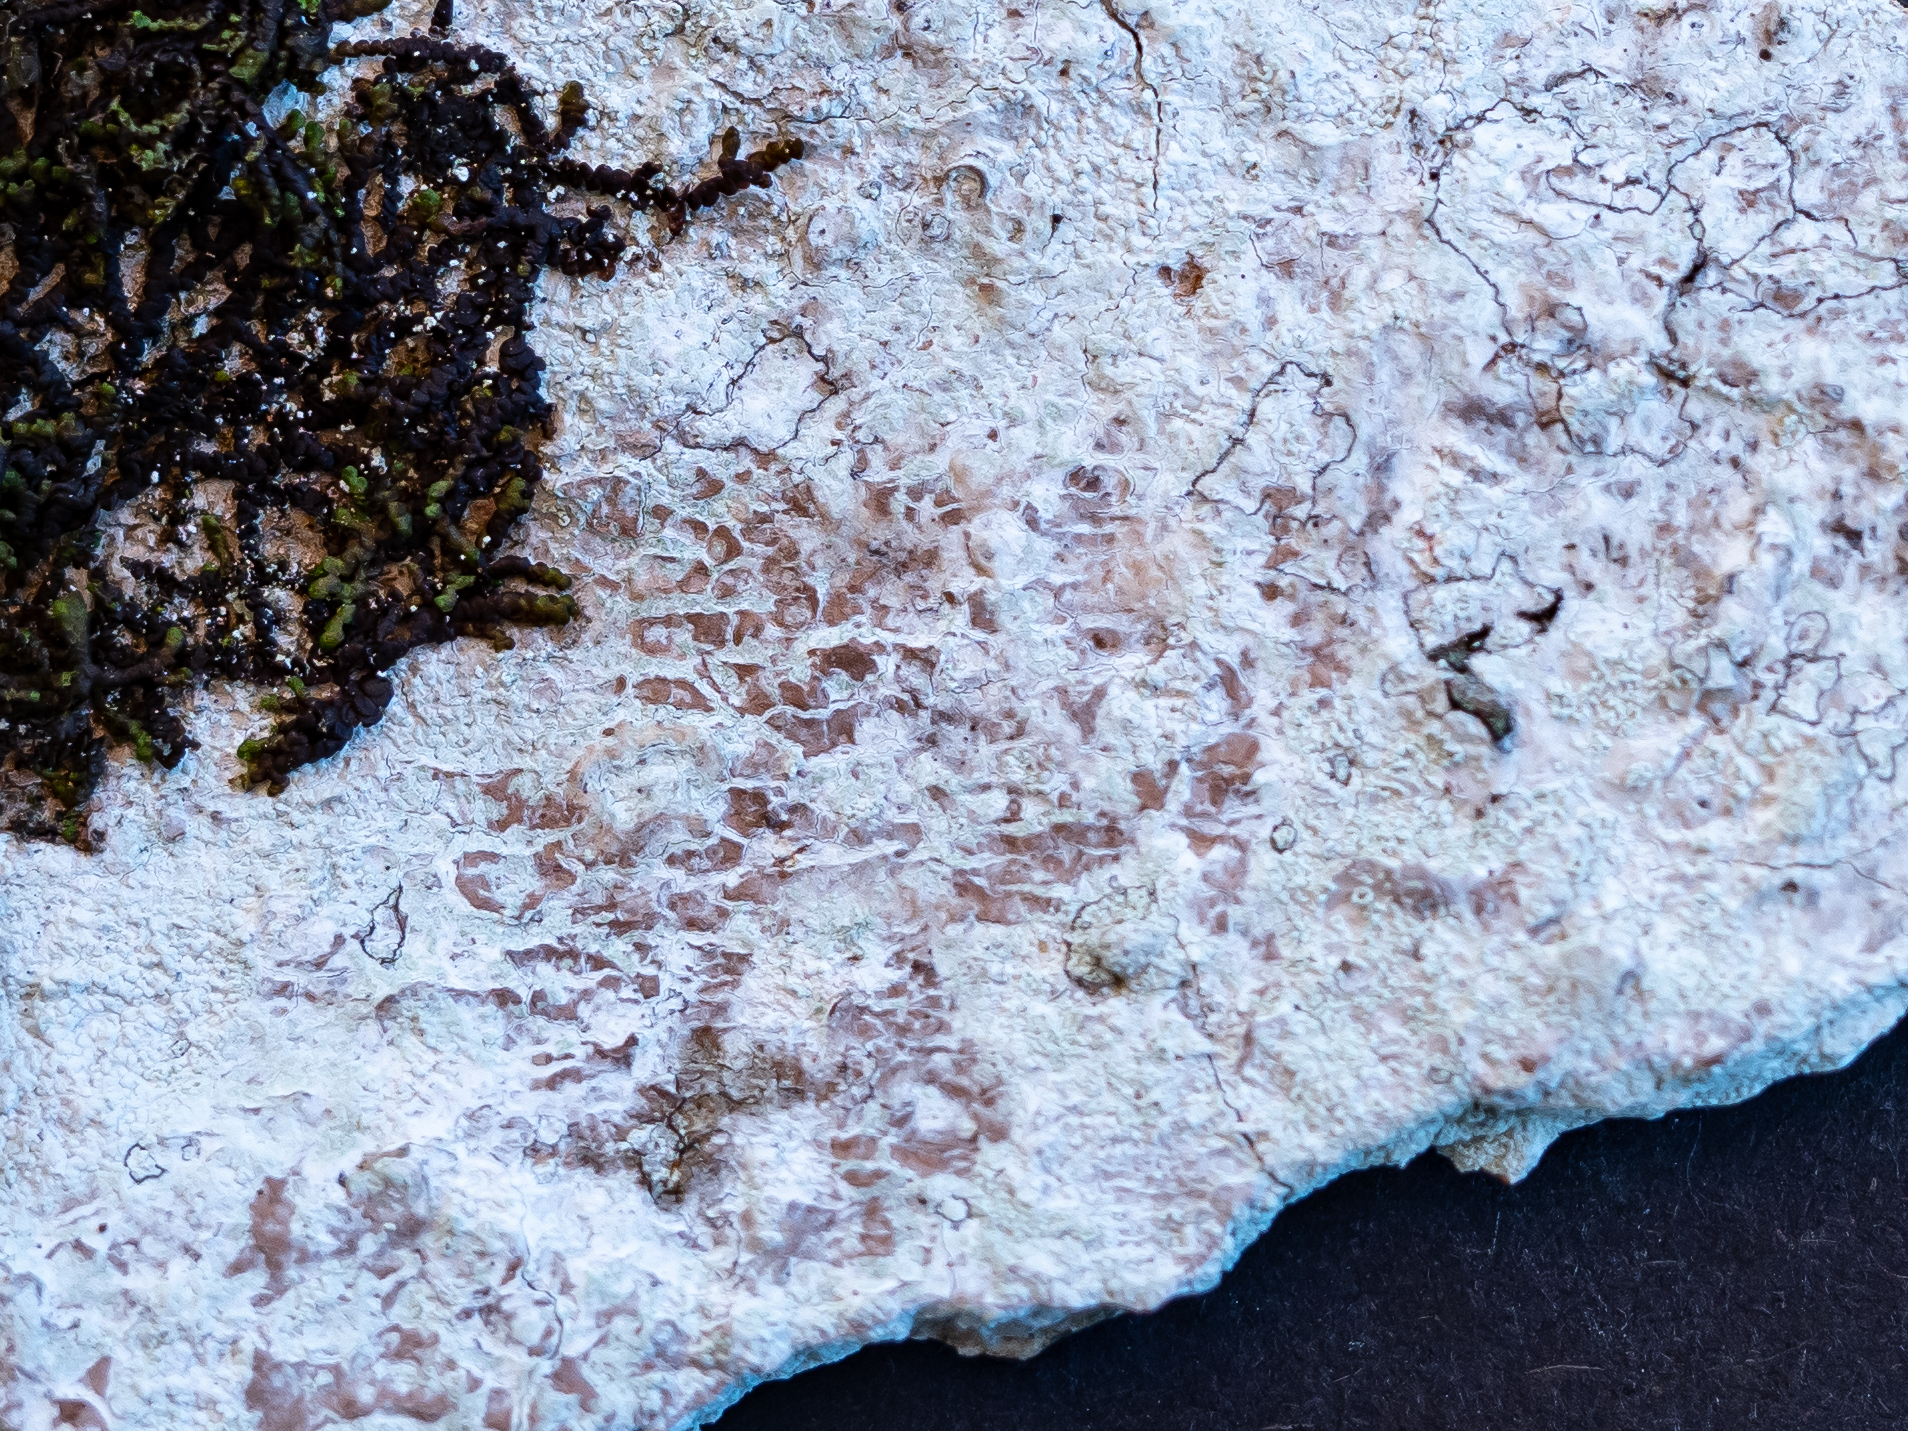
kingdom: Fungi
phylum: Ascomycota
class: Lecanoromycetes
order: Ostropales
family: Phlyctidaceae
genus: Phlyctis
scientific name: Phlyctis argena
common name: Whitewash lichen
